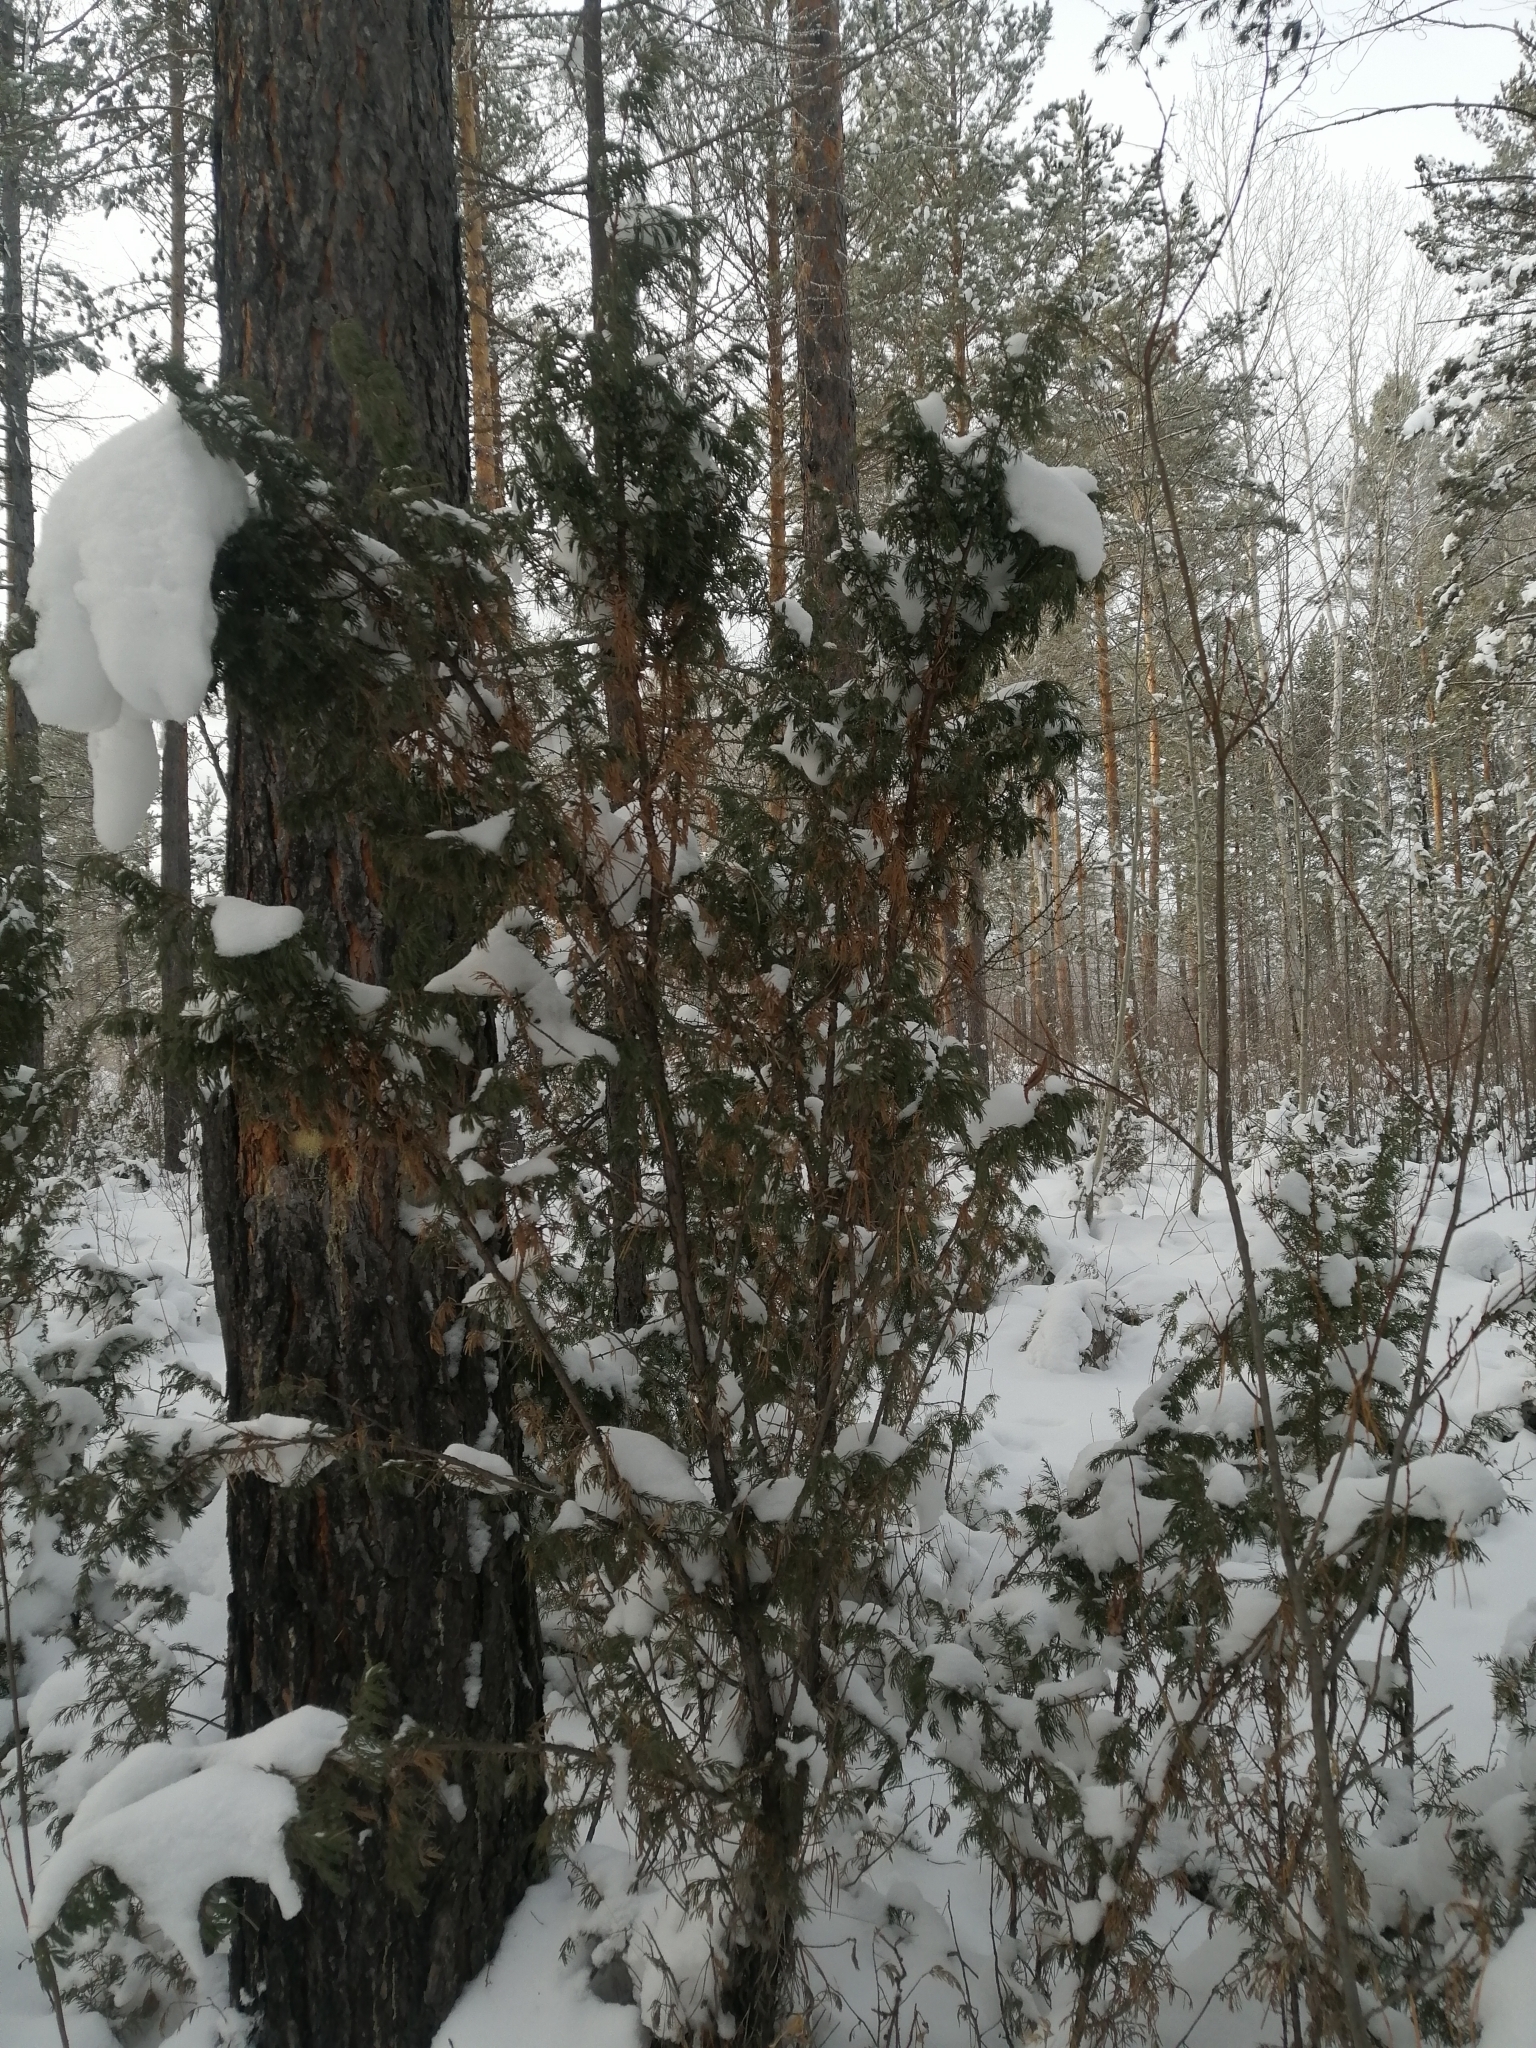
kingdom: Plantae
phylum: Tracheophyta
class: Pinopsida
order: Pinales
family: Cupressaceae
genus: Juniperus
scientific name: Juniperus communis
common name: Common juniper
